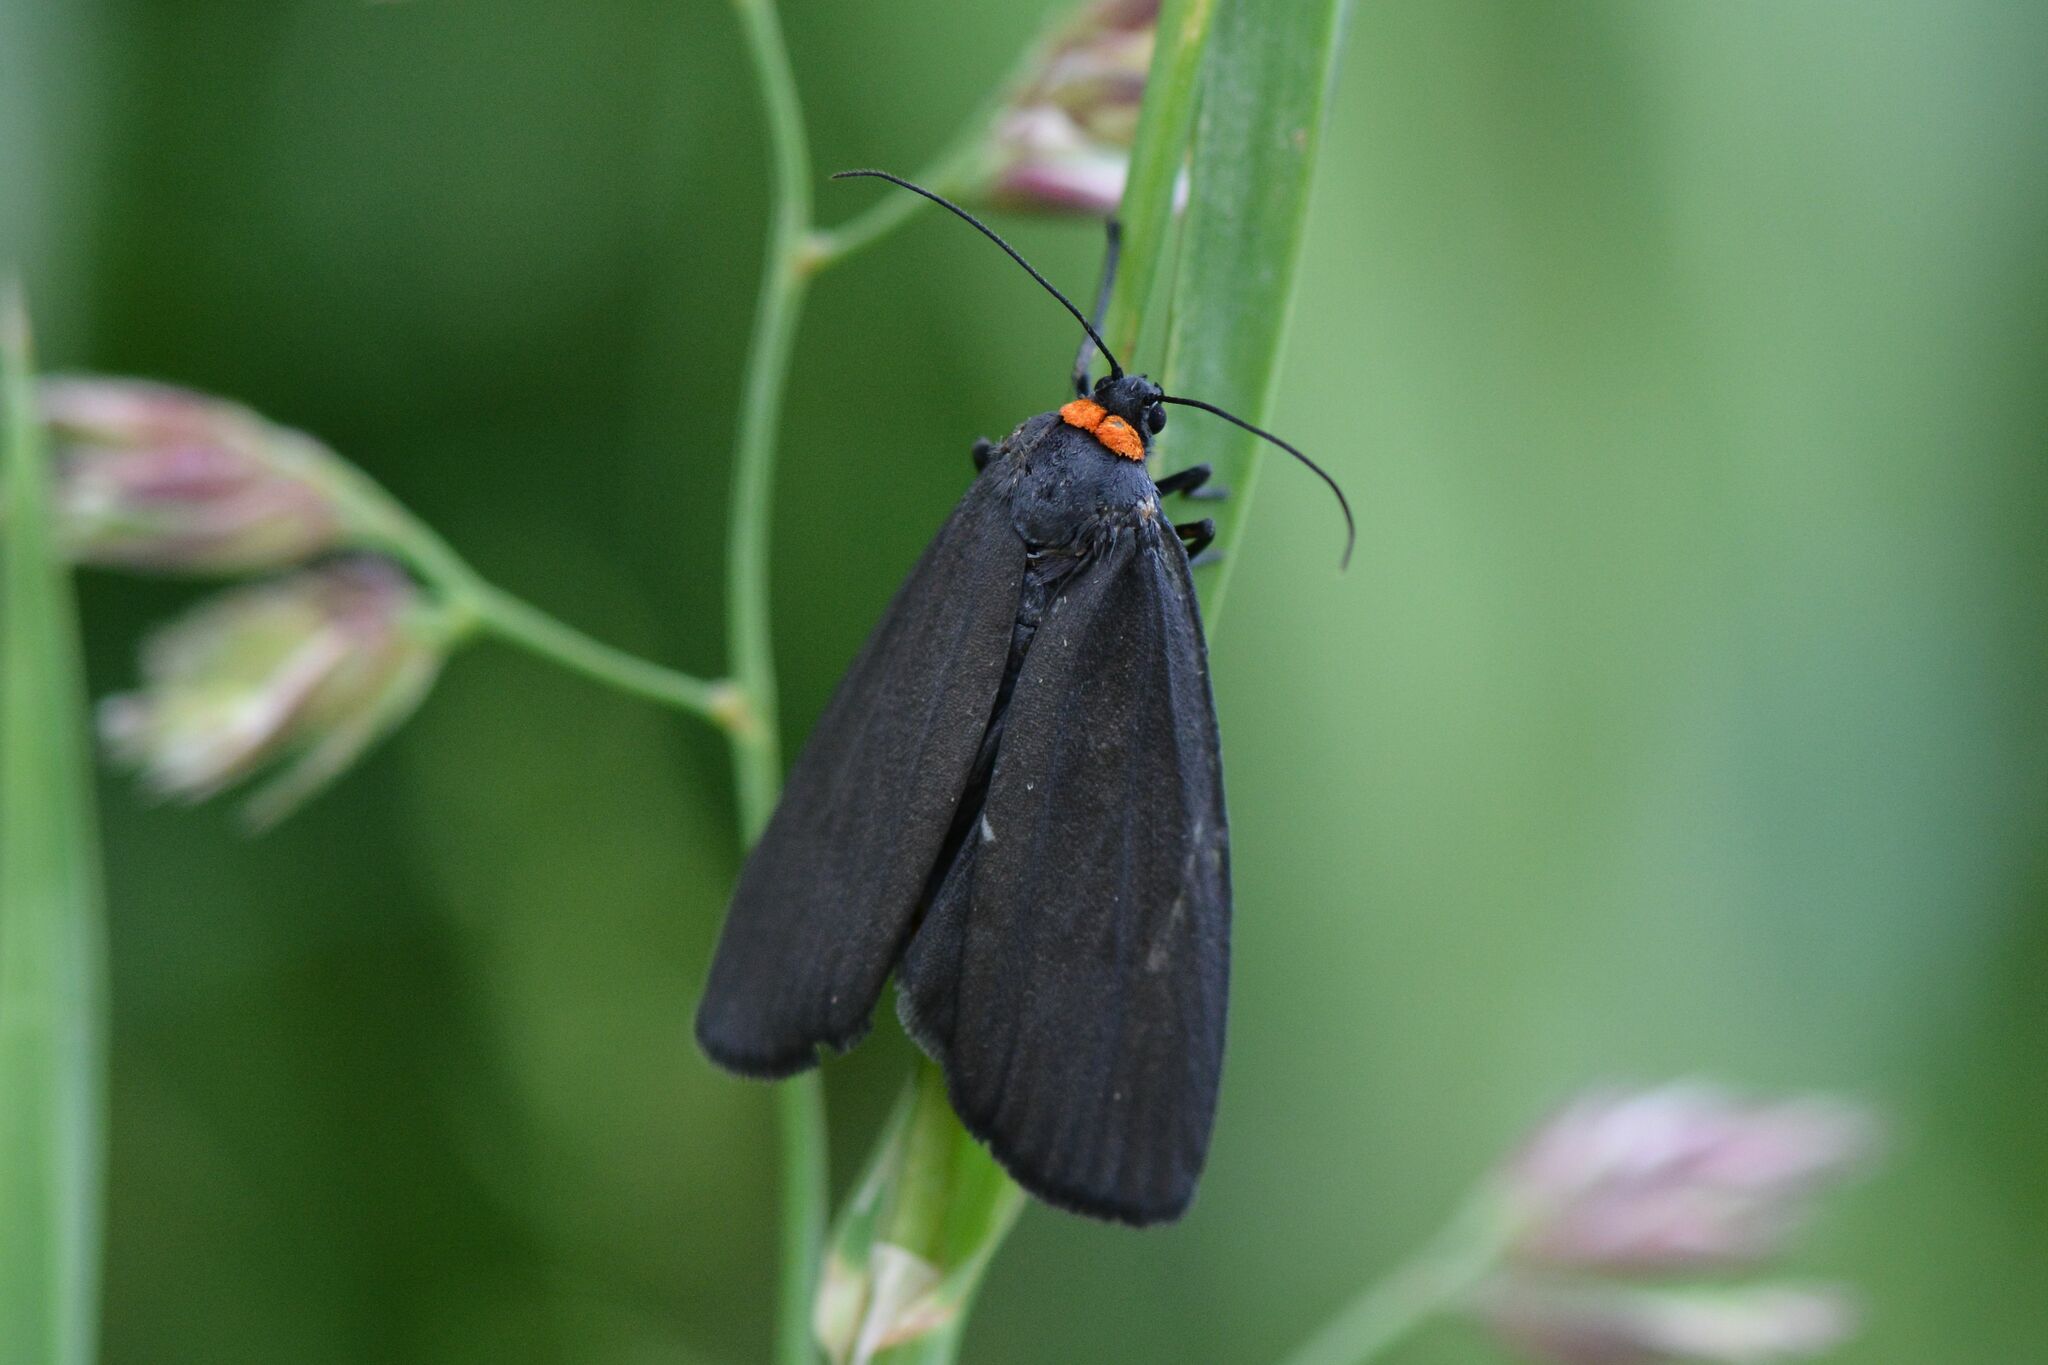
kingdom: Animalia
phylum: Arthropoda
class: Insecta
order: Lepidoptera
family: Erebidae
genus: Atolmis
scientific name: Atolmis rubricollis
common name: Red-necked footman
